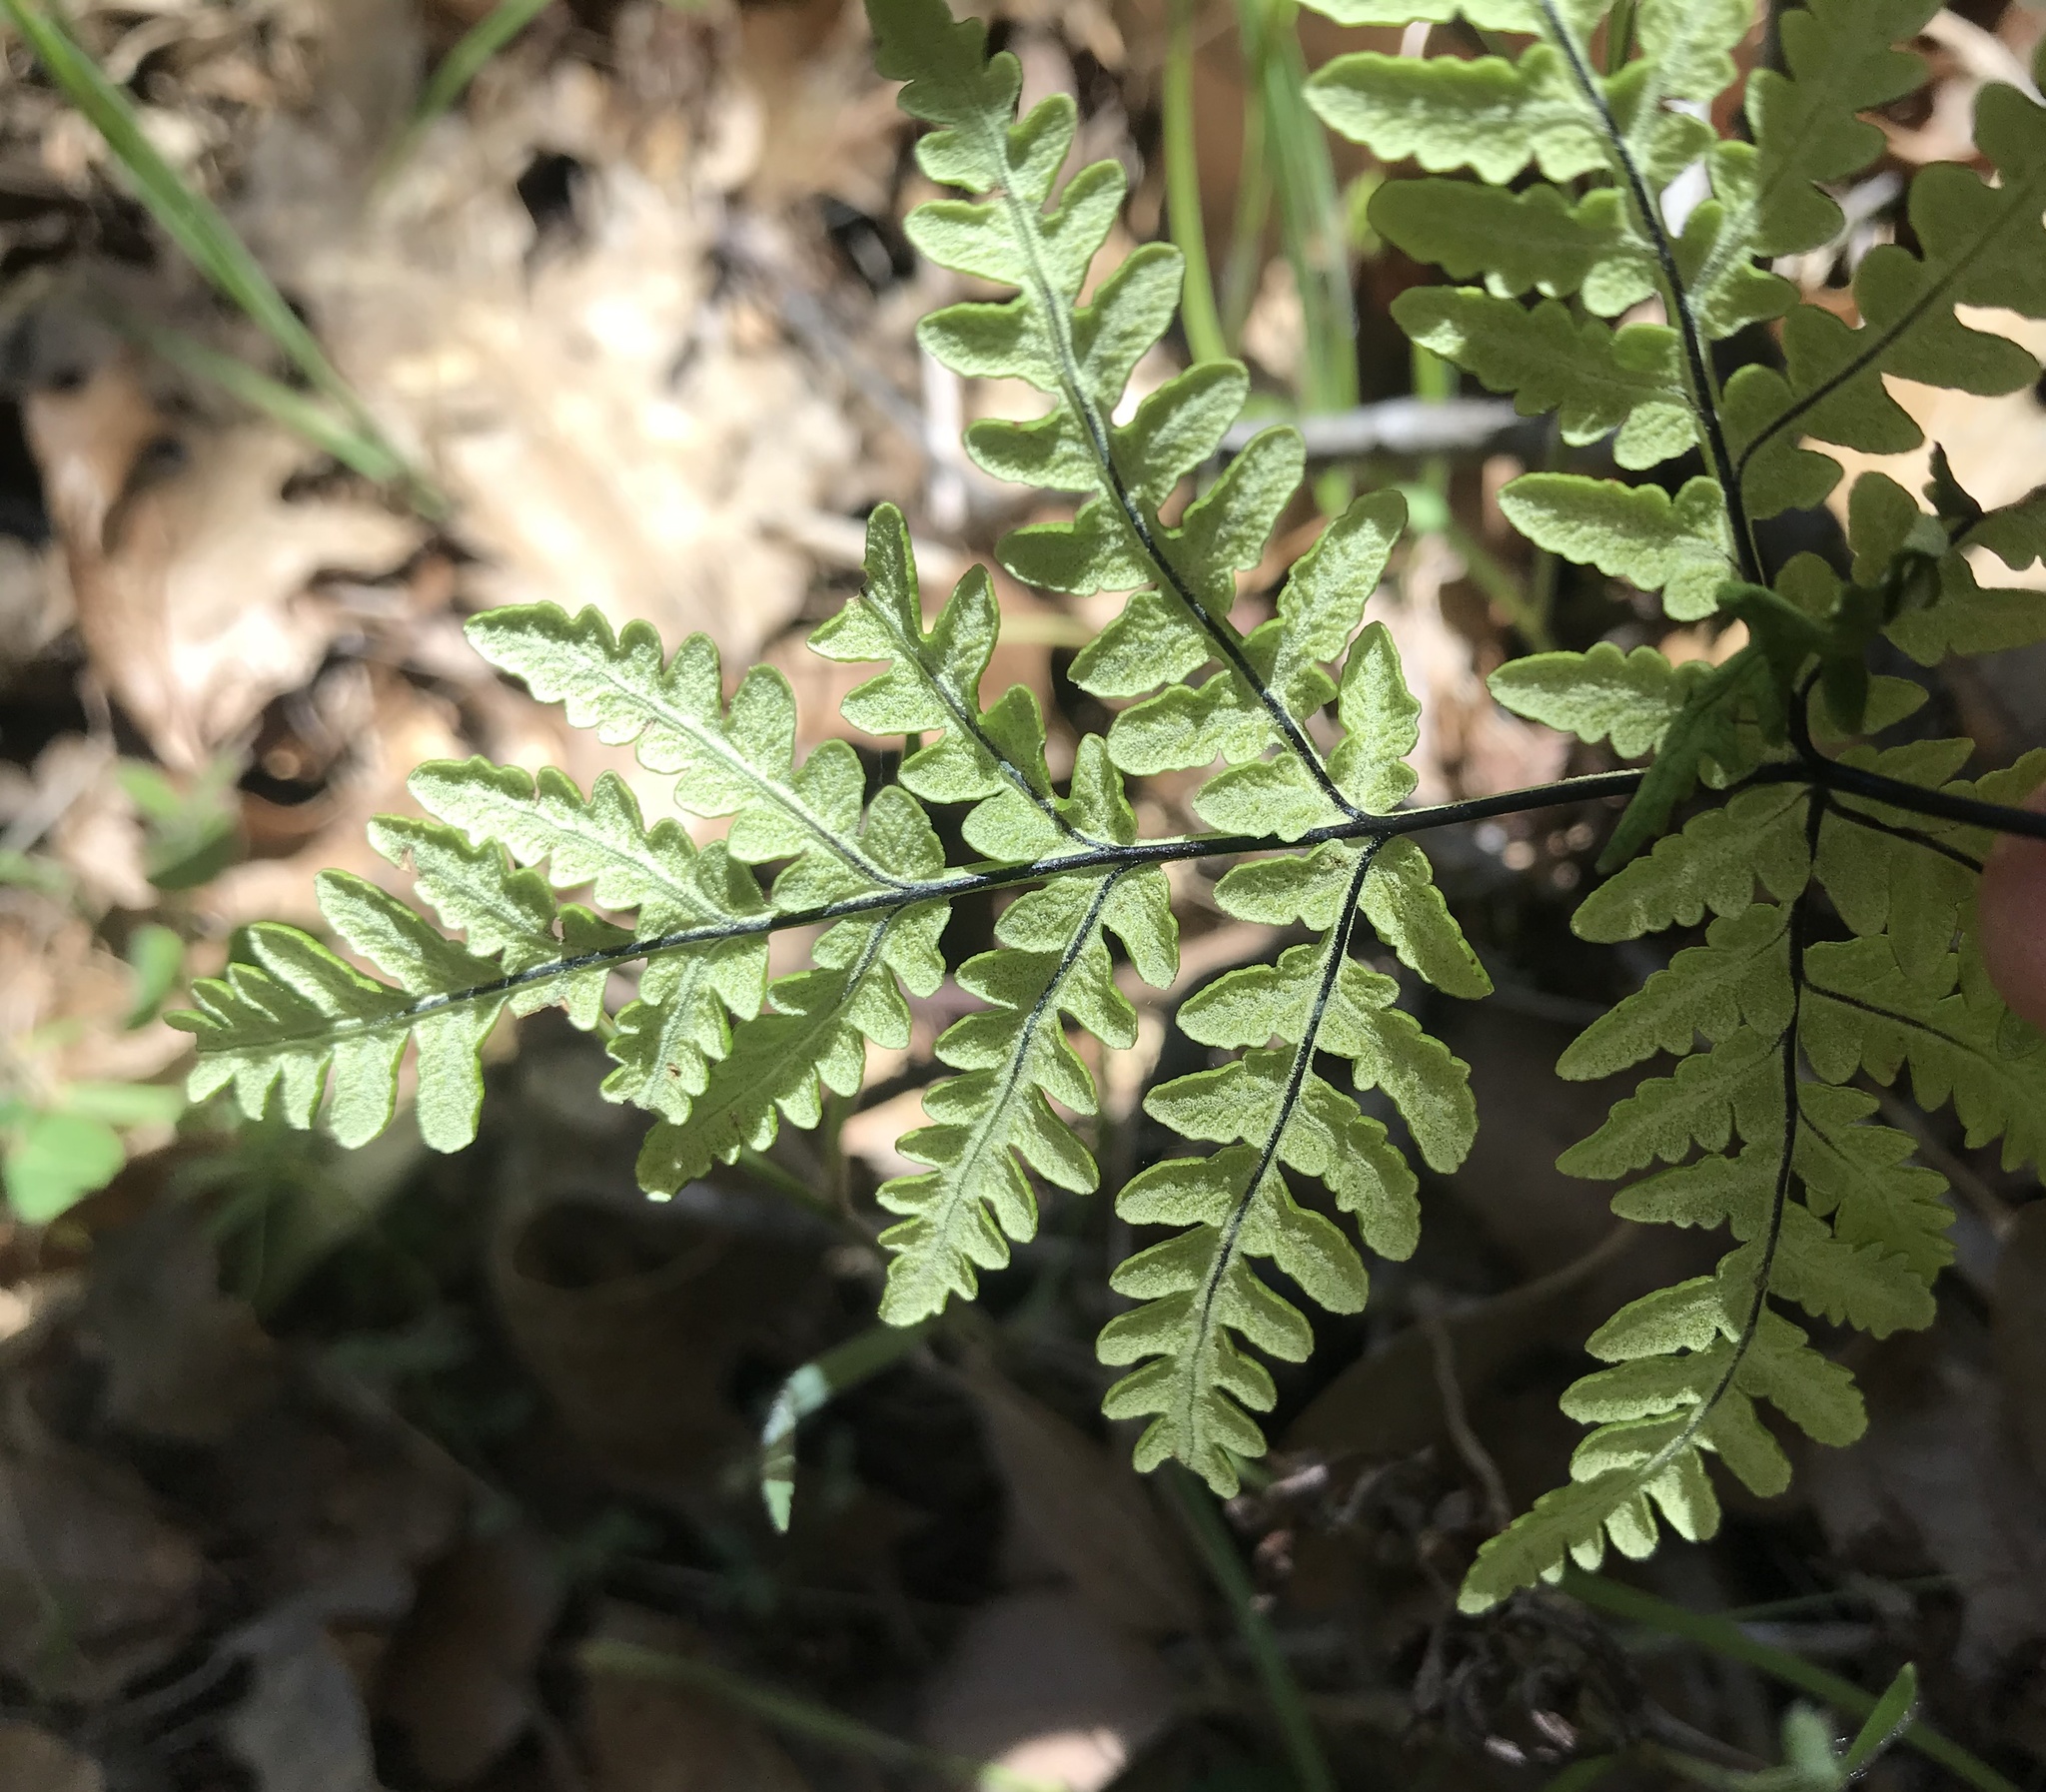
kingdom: Plantae
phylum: Tracheophyta
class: Polypodiopsida
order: Polypodiales
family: Pteridaceae
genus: Pentagramma
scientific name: Pentagramma triangularis
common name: Gold fern
